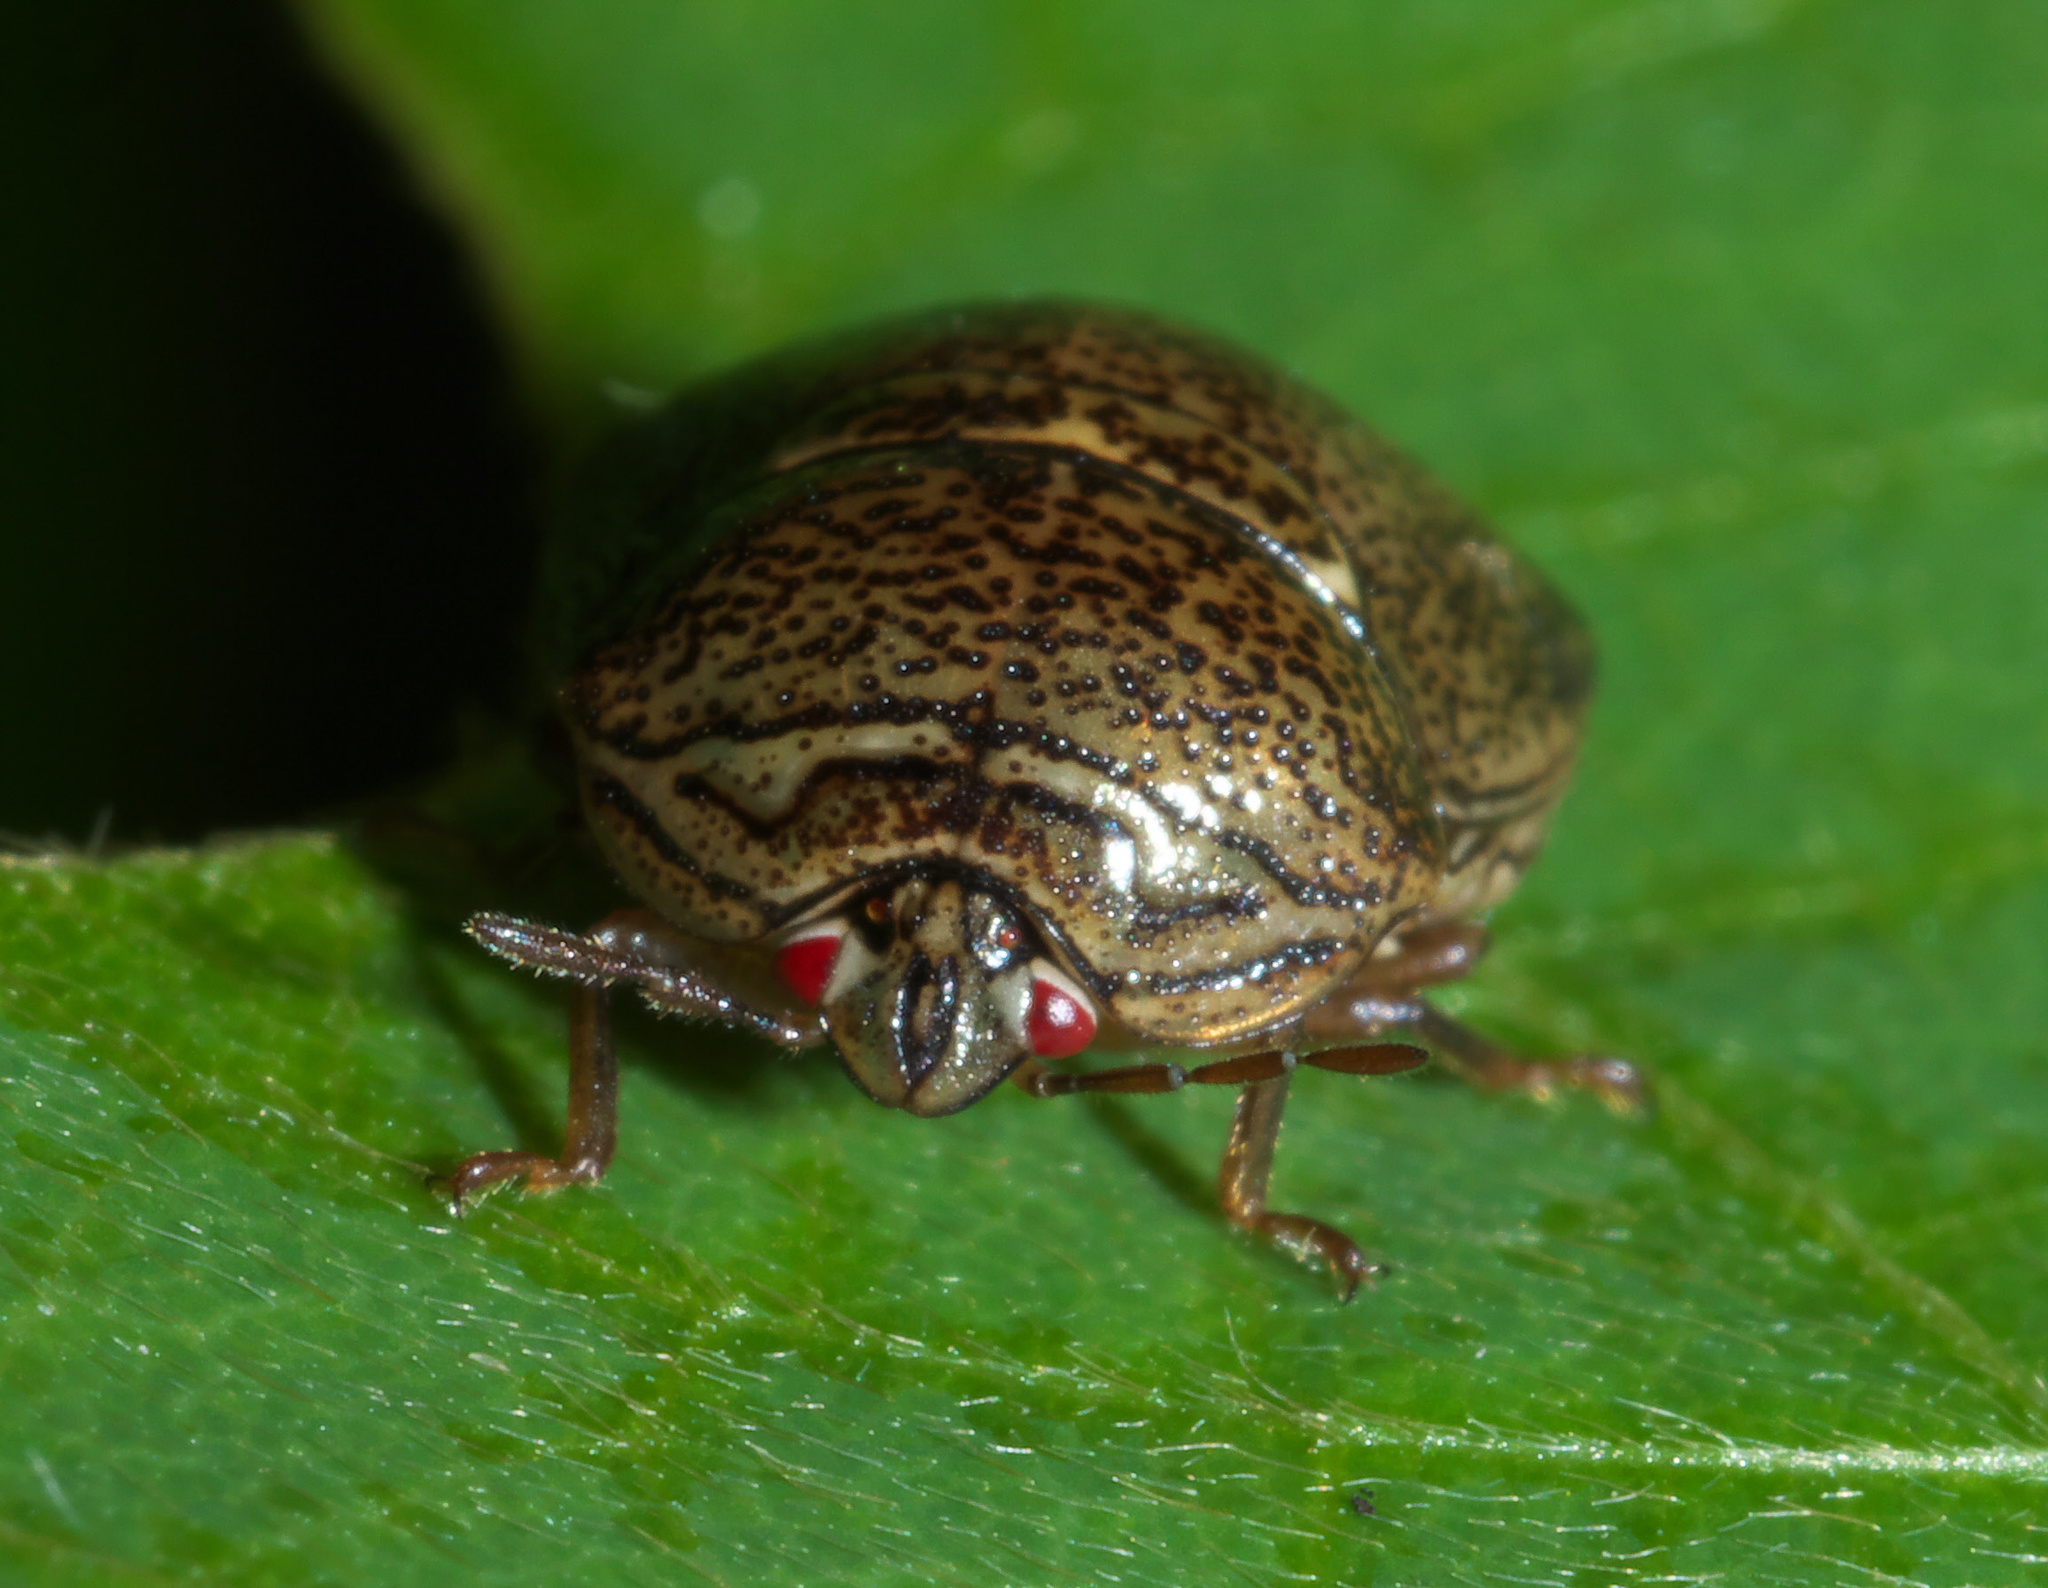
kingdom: Animalia
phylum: Arthropoda
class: Insecta
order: Hemiptera
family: Plataspidae
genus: Megacopta
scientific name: Megacopta cribraria
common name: Bean plataspid
